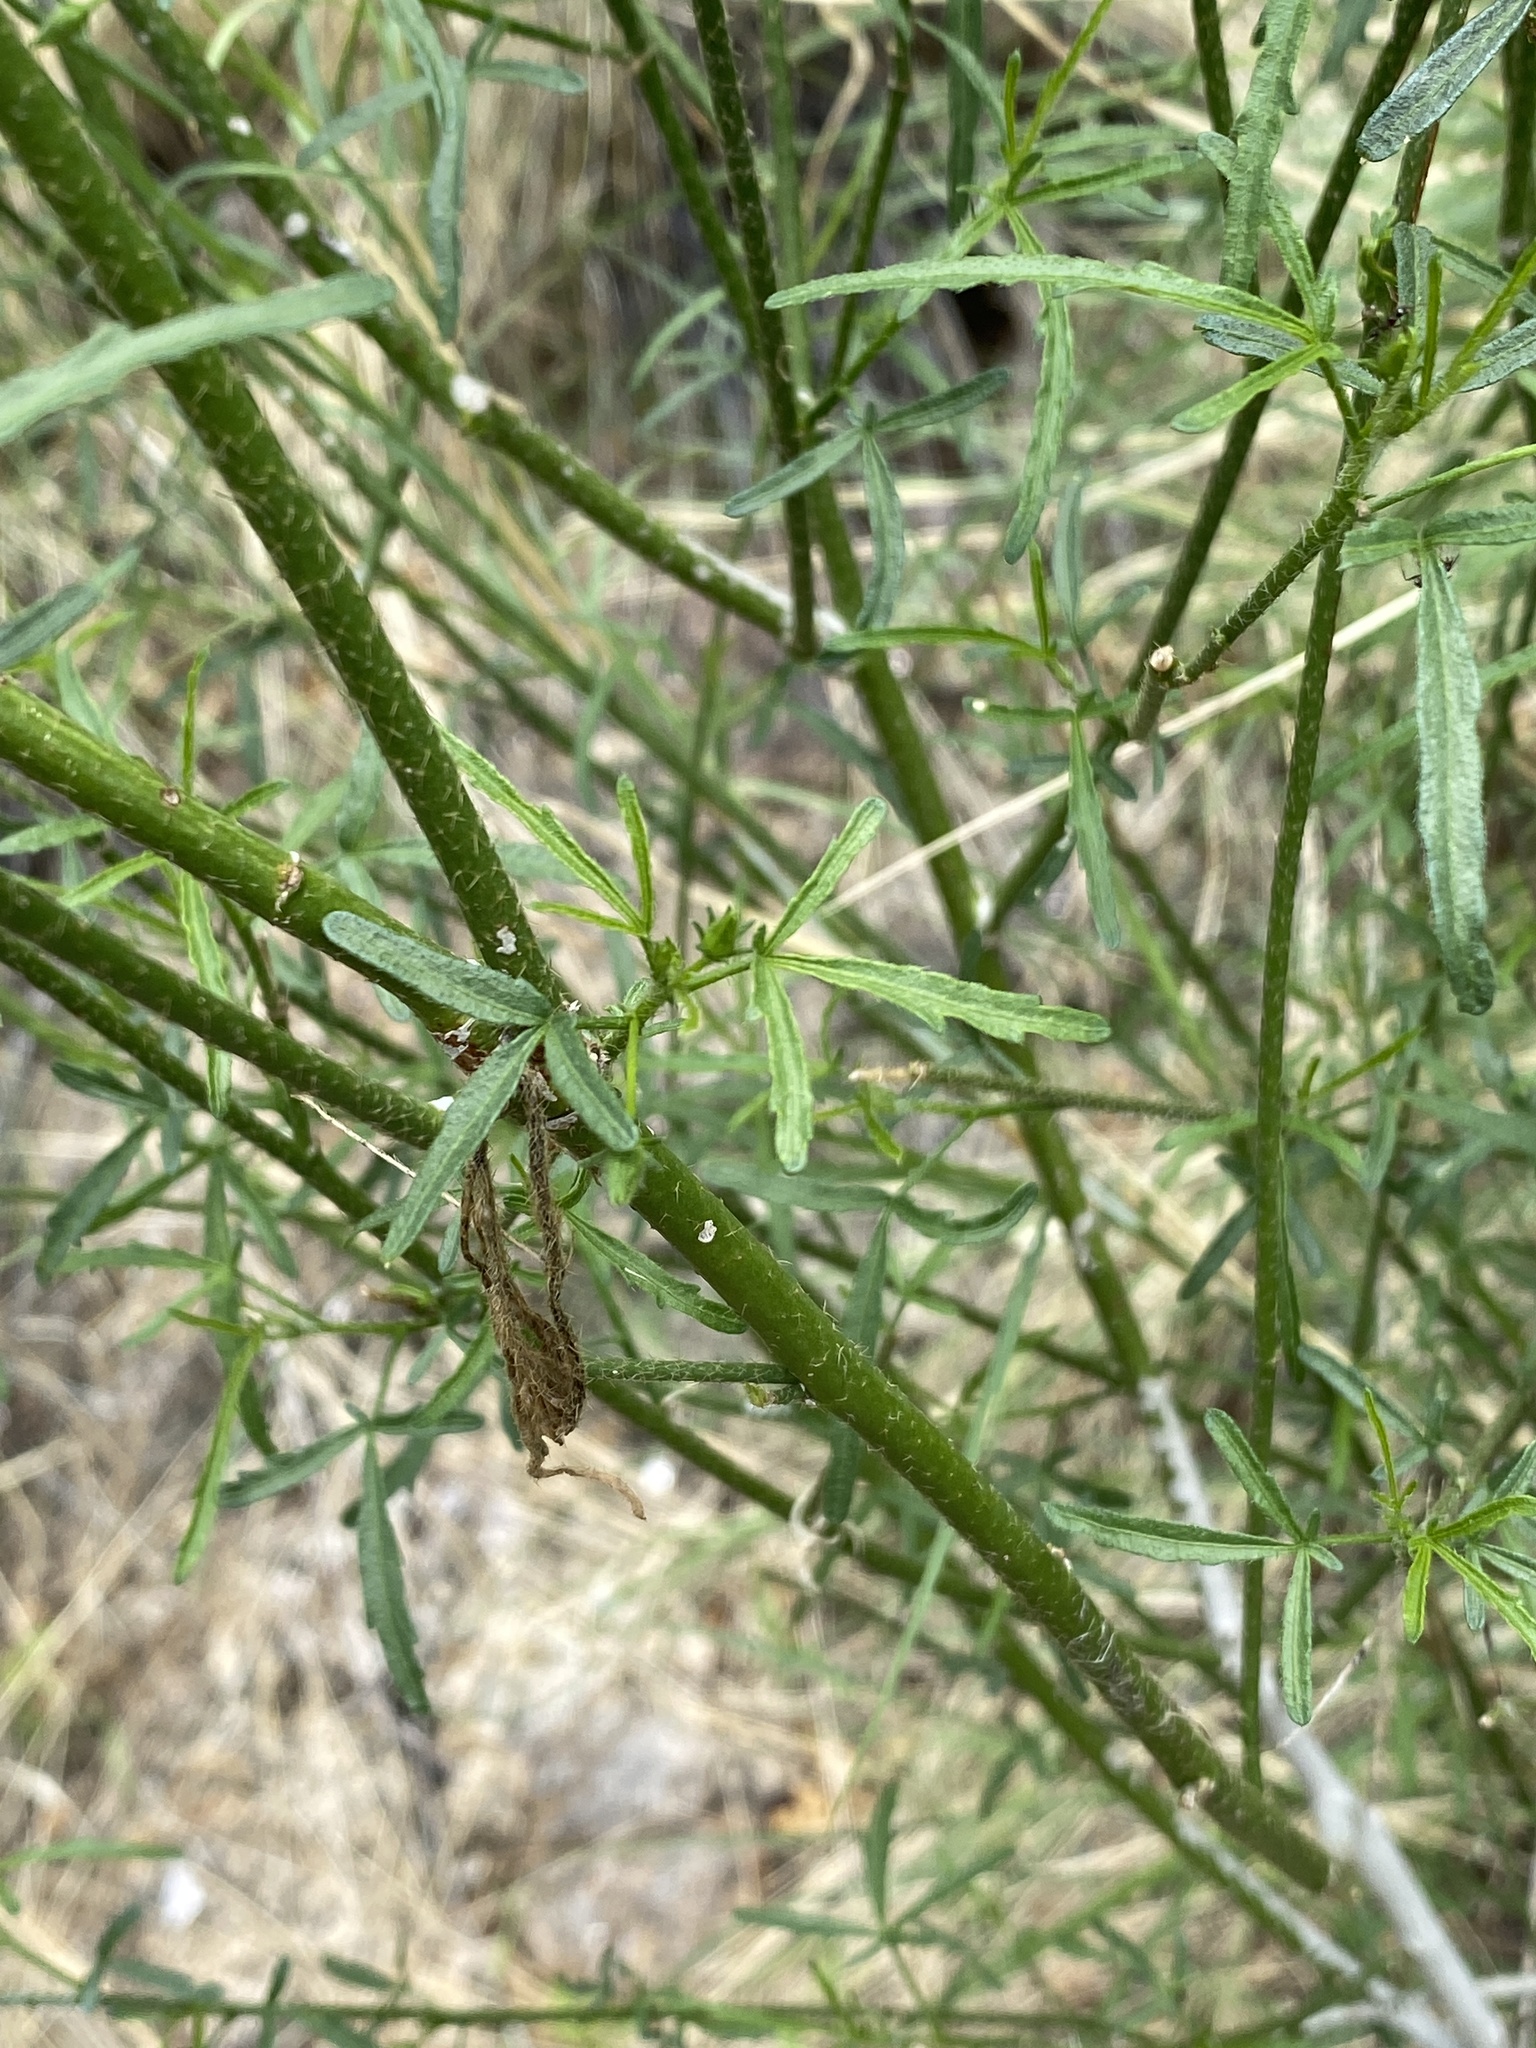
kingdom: Plantae
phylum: Tracheophyta
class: Magnoliopsida
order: Malvales
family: Malvaceae
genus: Hibiscus
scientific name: Hibiscus dinteri
